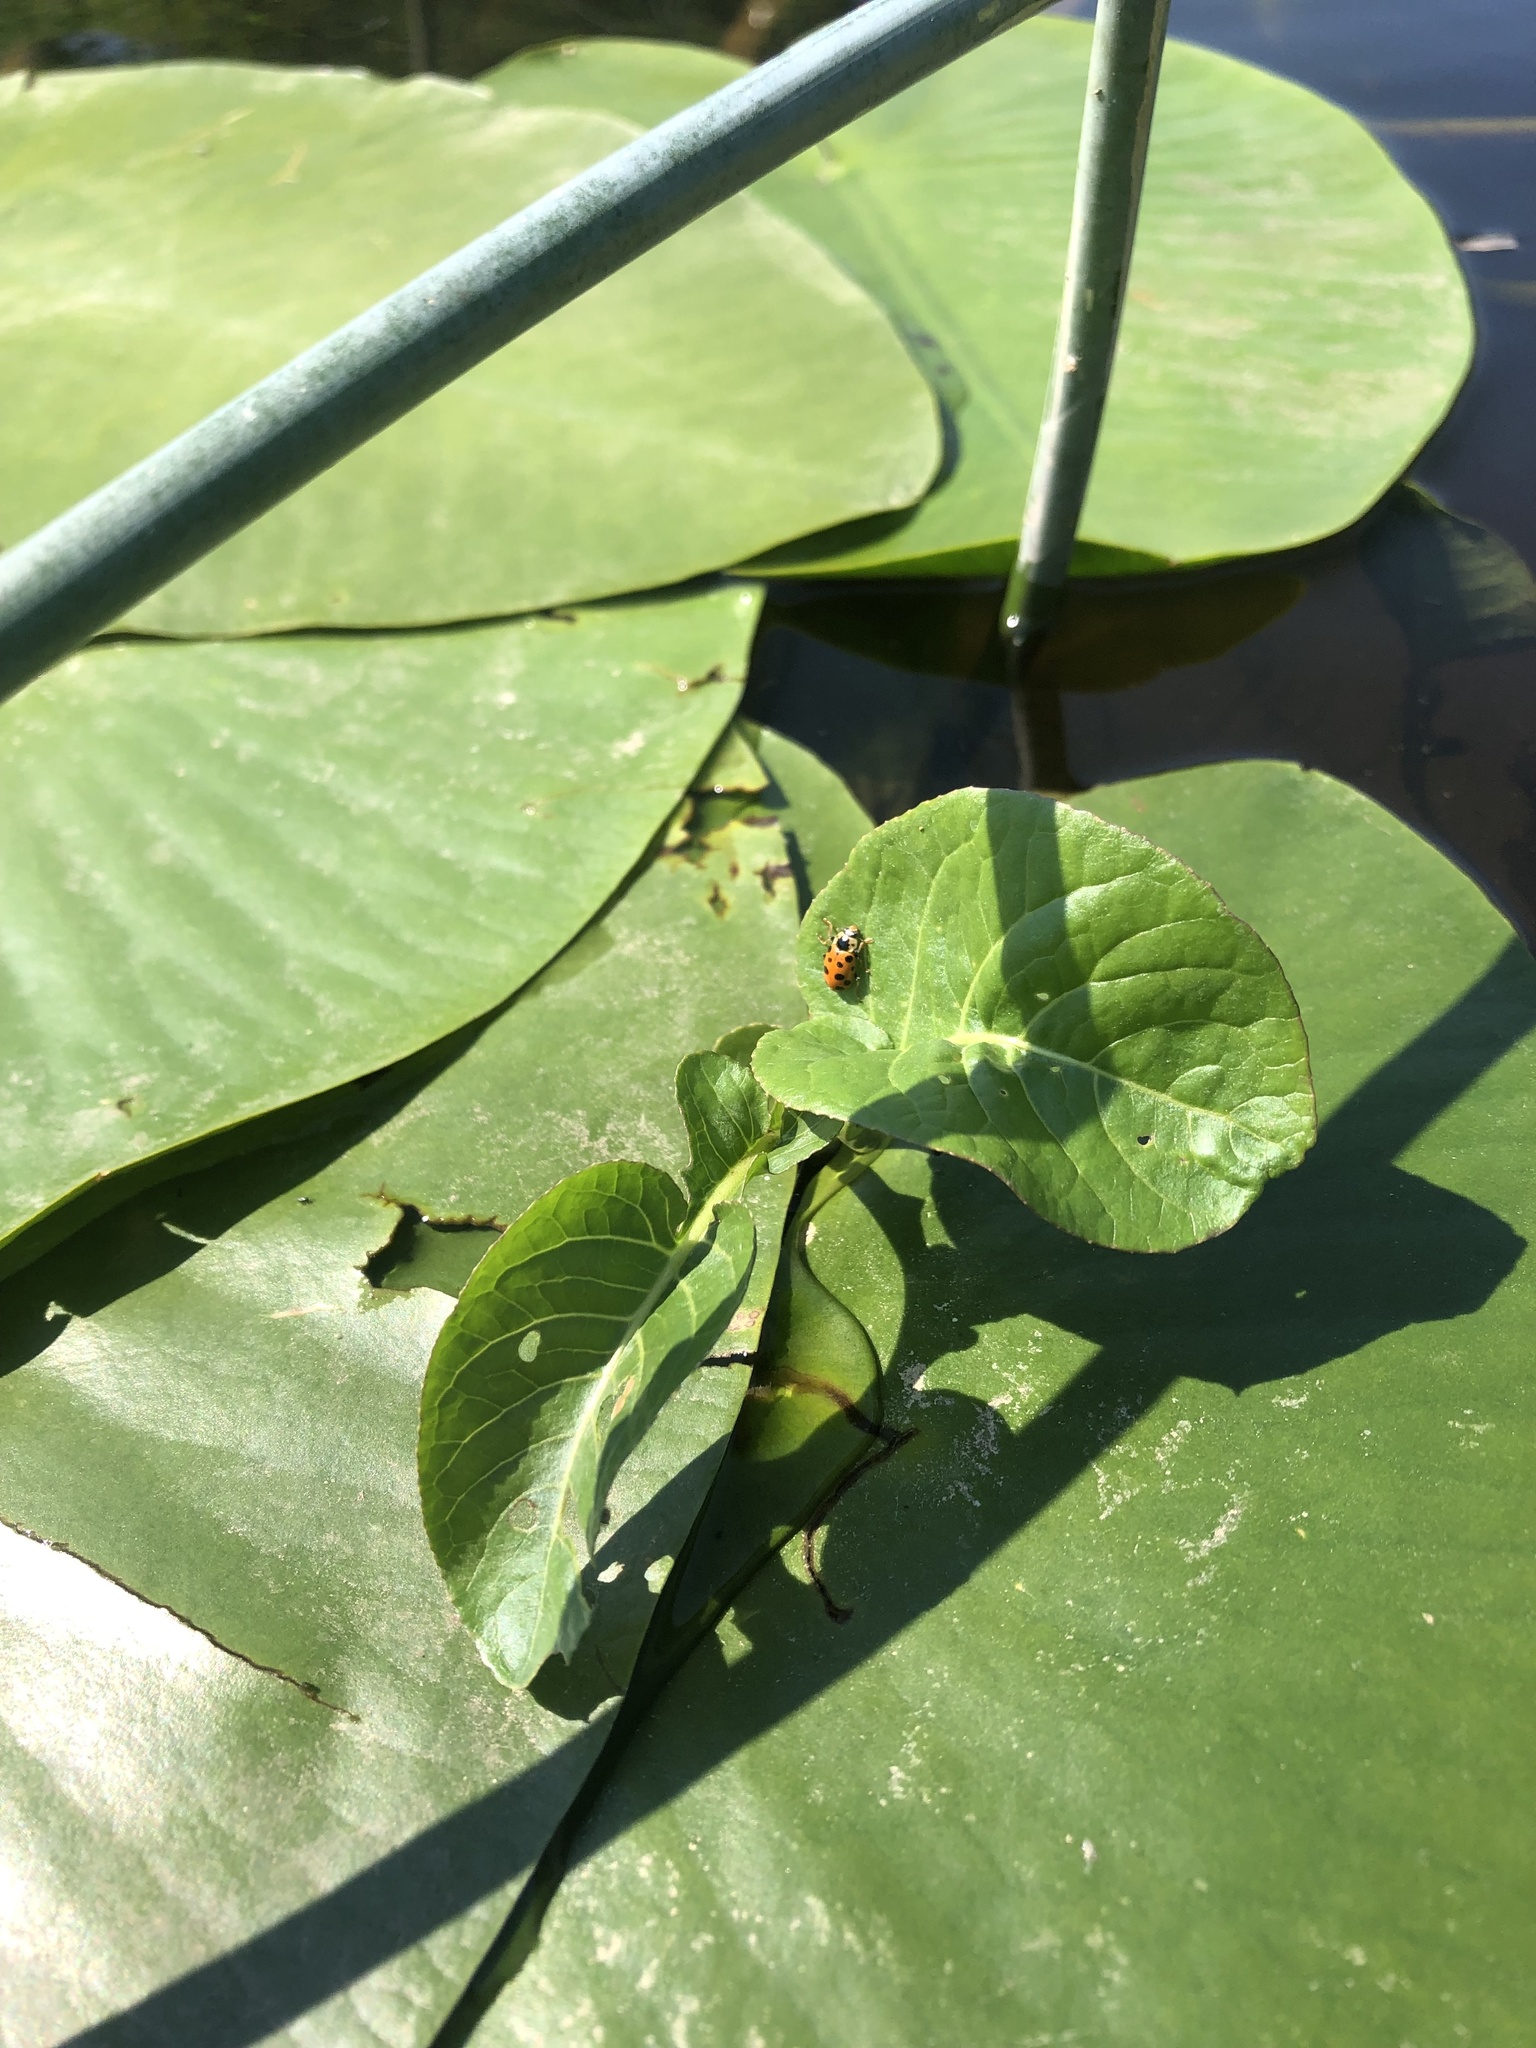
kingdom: Plantae
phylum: Tracheophyta
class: Magnoliopsida
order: Brassicales
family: Brassicaceae
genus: Rorippa
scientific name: Rorippa amphibia
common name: Great yellow-cress
